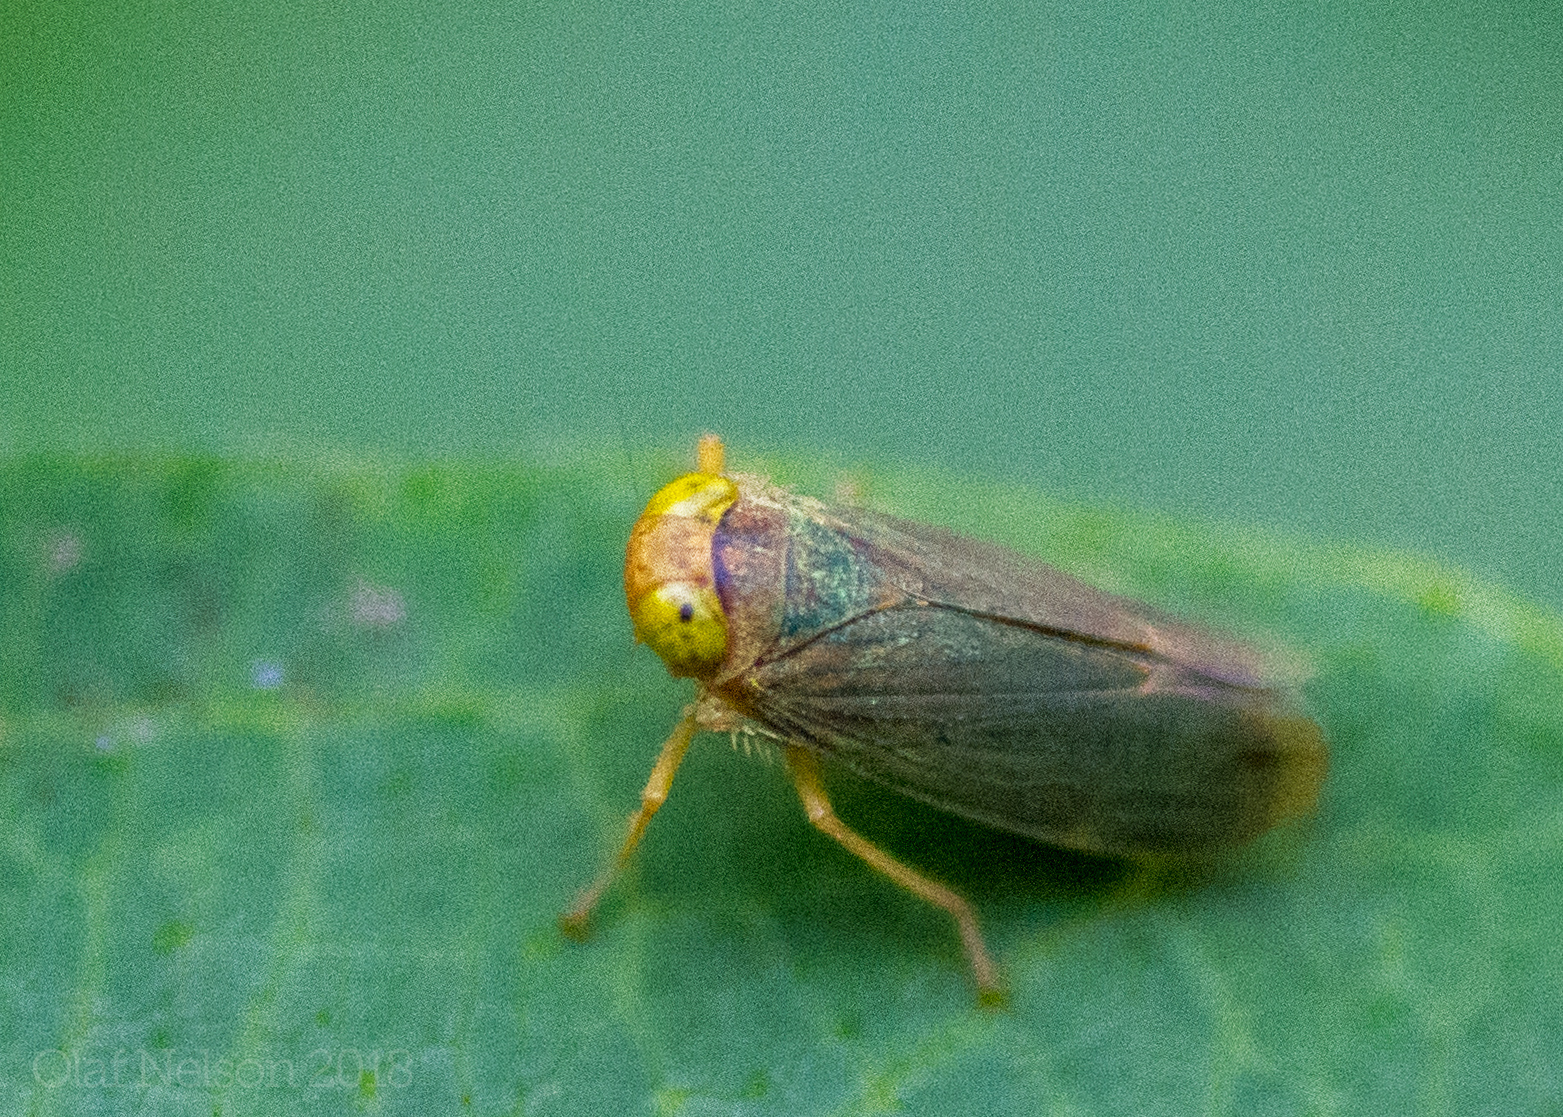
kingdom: Animalia
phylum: Arthropoda
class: Insecta
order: Hemiptera
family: Cicadellidae
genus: Jikradia
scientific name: Jikradia olitoria
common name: Coppery leafhopper
